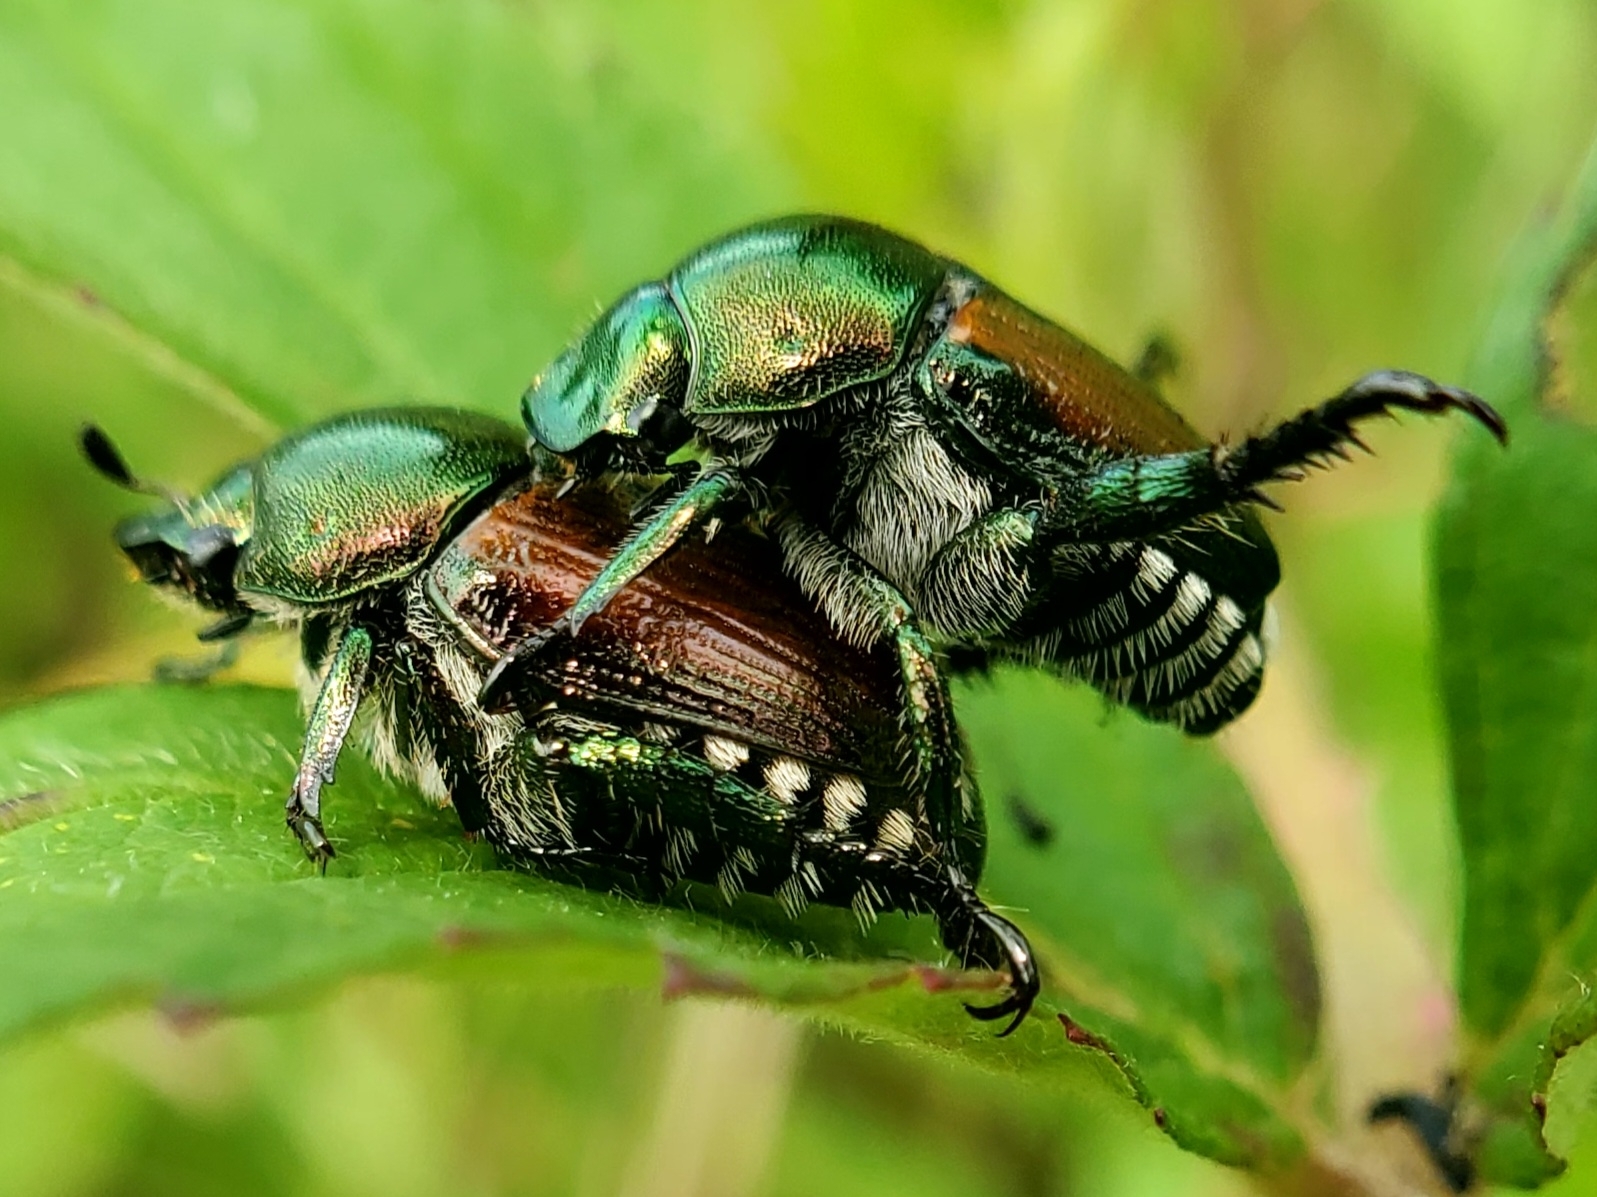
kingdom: Animalia
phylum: Arthropoda
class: Insecta
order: Coleoptera
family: Scarabaeidae
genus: Popillia
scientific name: Popillia japonica
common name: Japanese beetle
